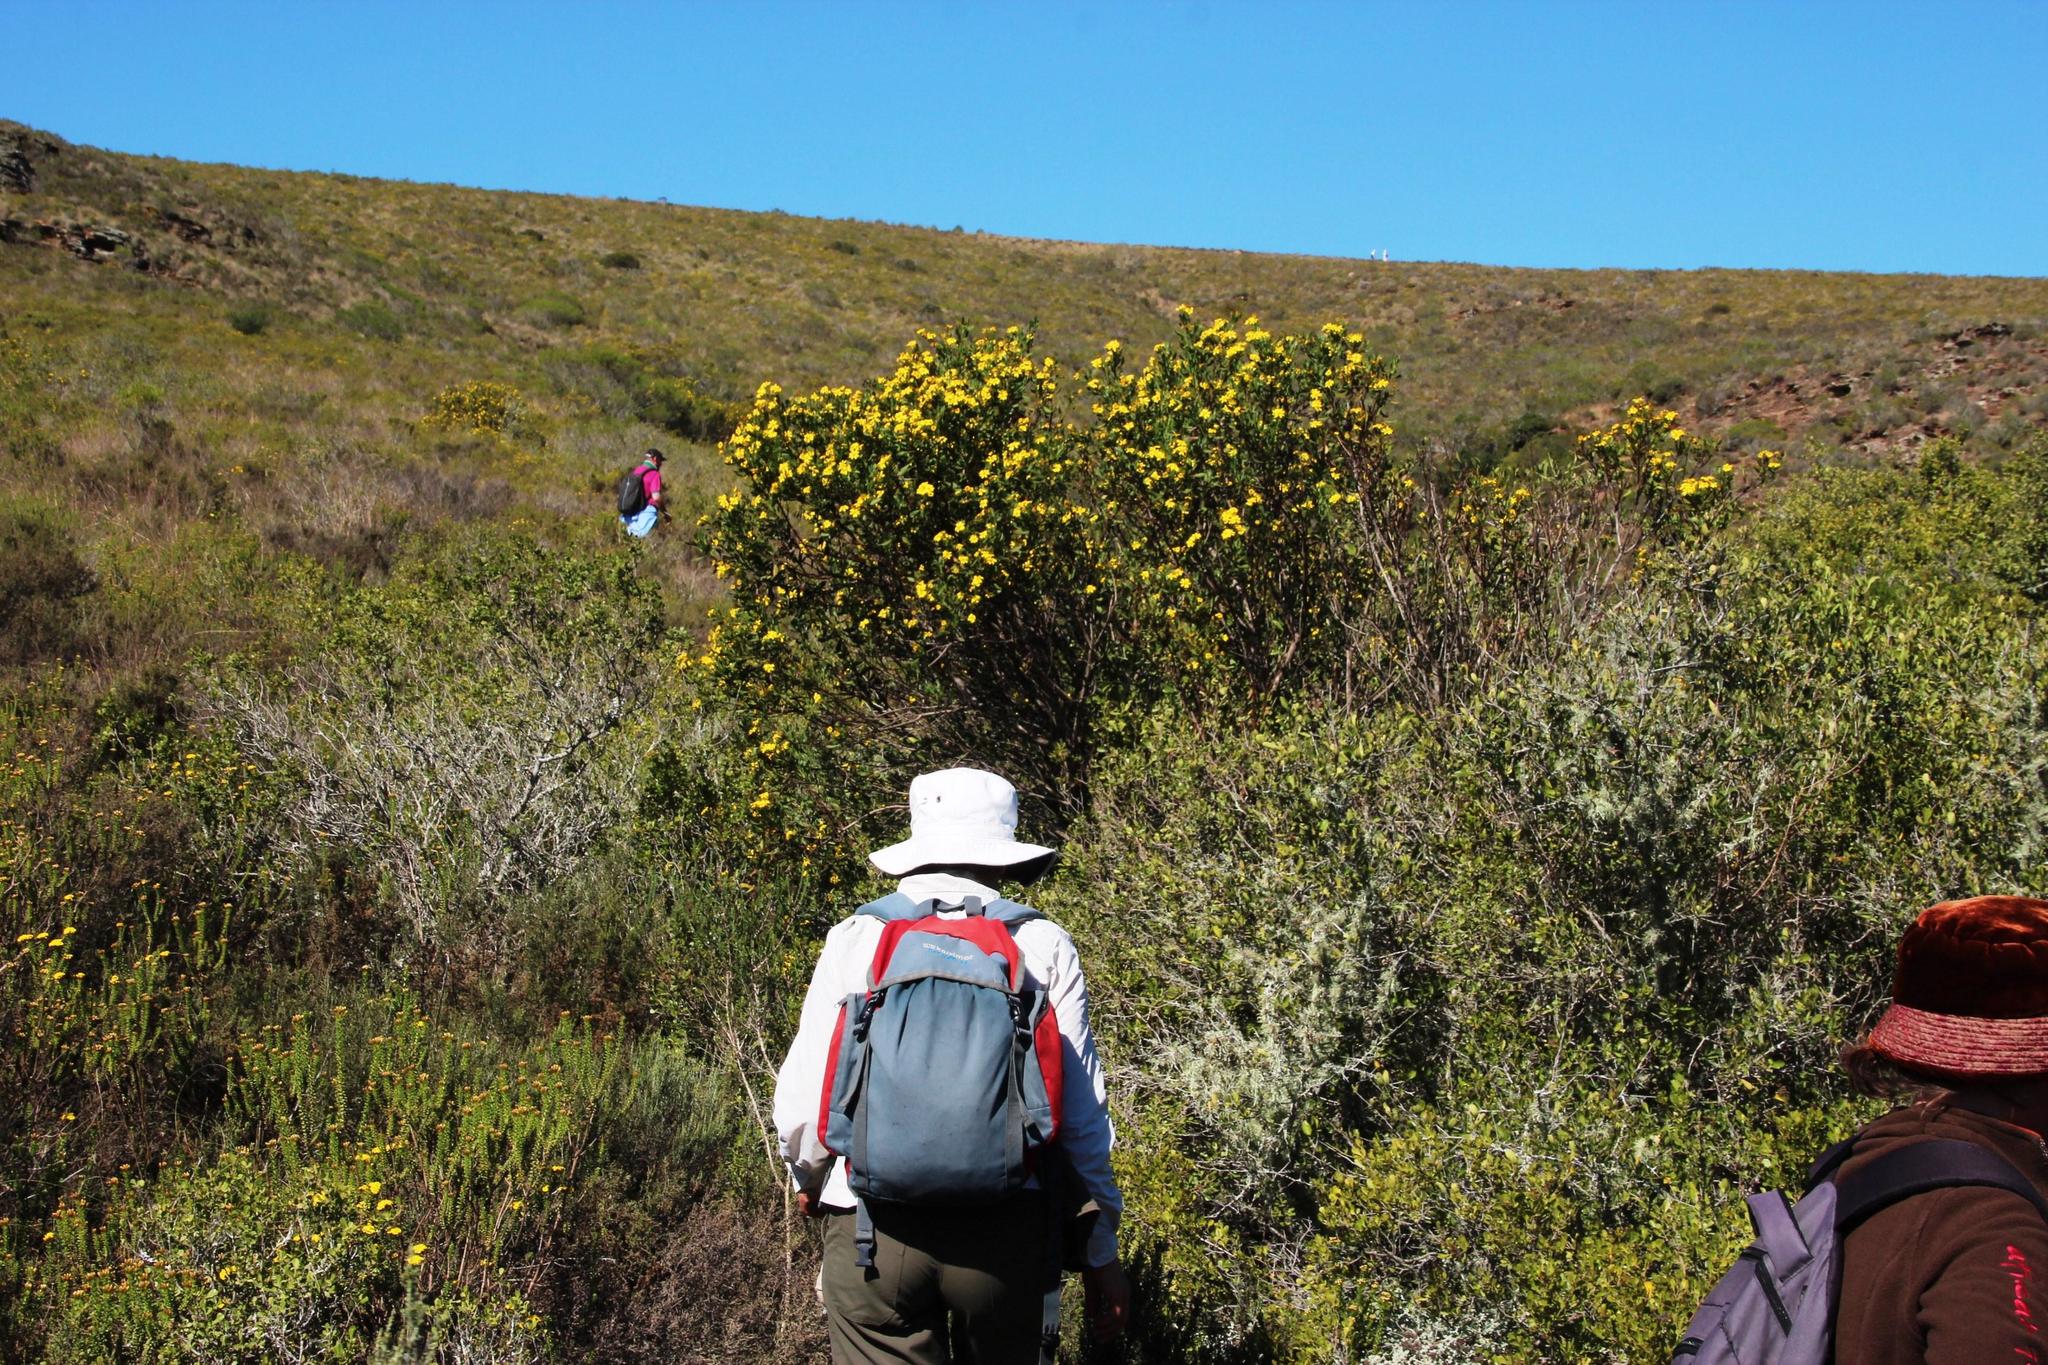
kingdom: Plantae
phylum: Tracheophyta
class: Magnoliopsida
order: Asterales
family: Asteraceae
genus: Osteospermum
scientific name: Osteospermum moniliferum
